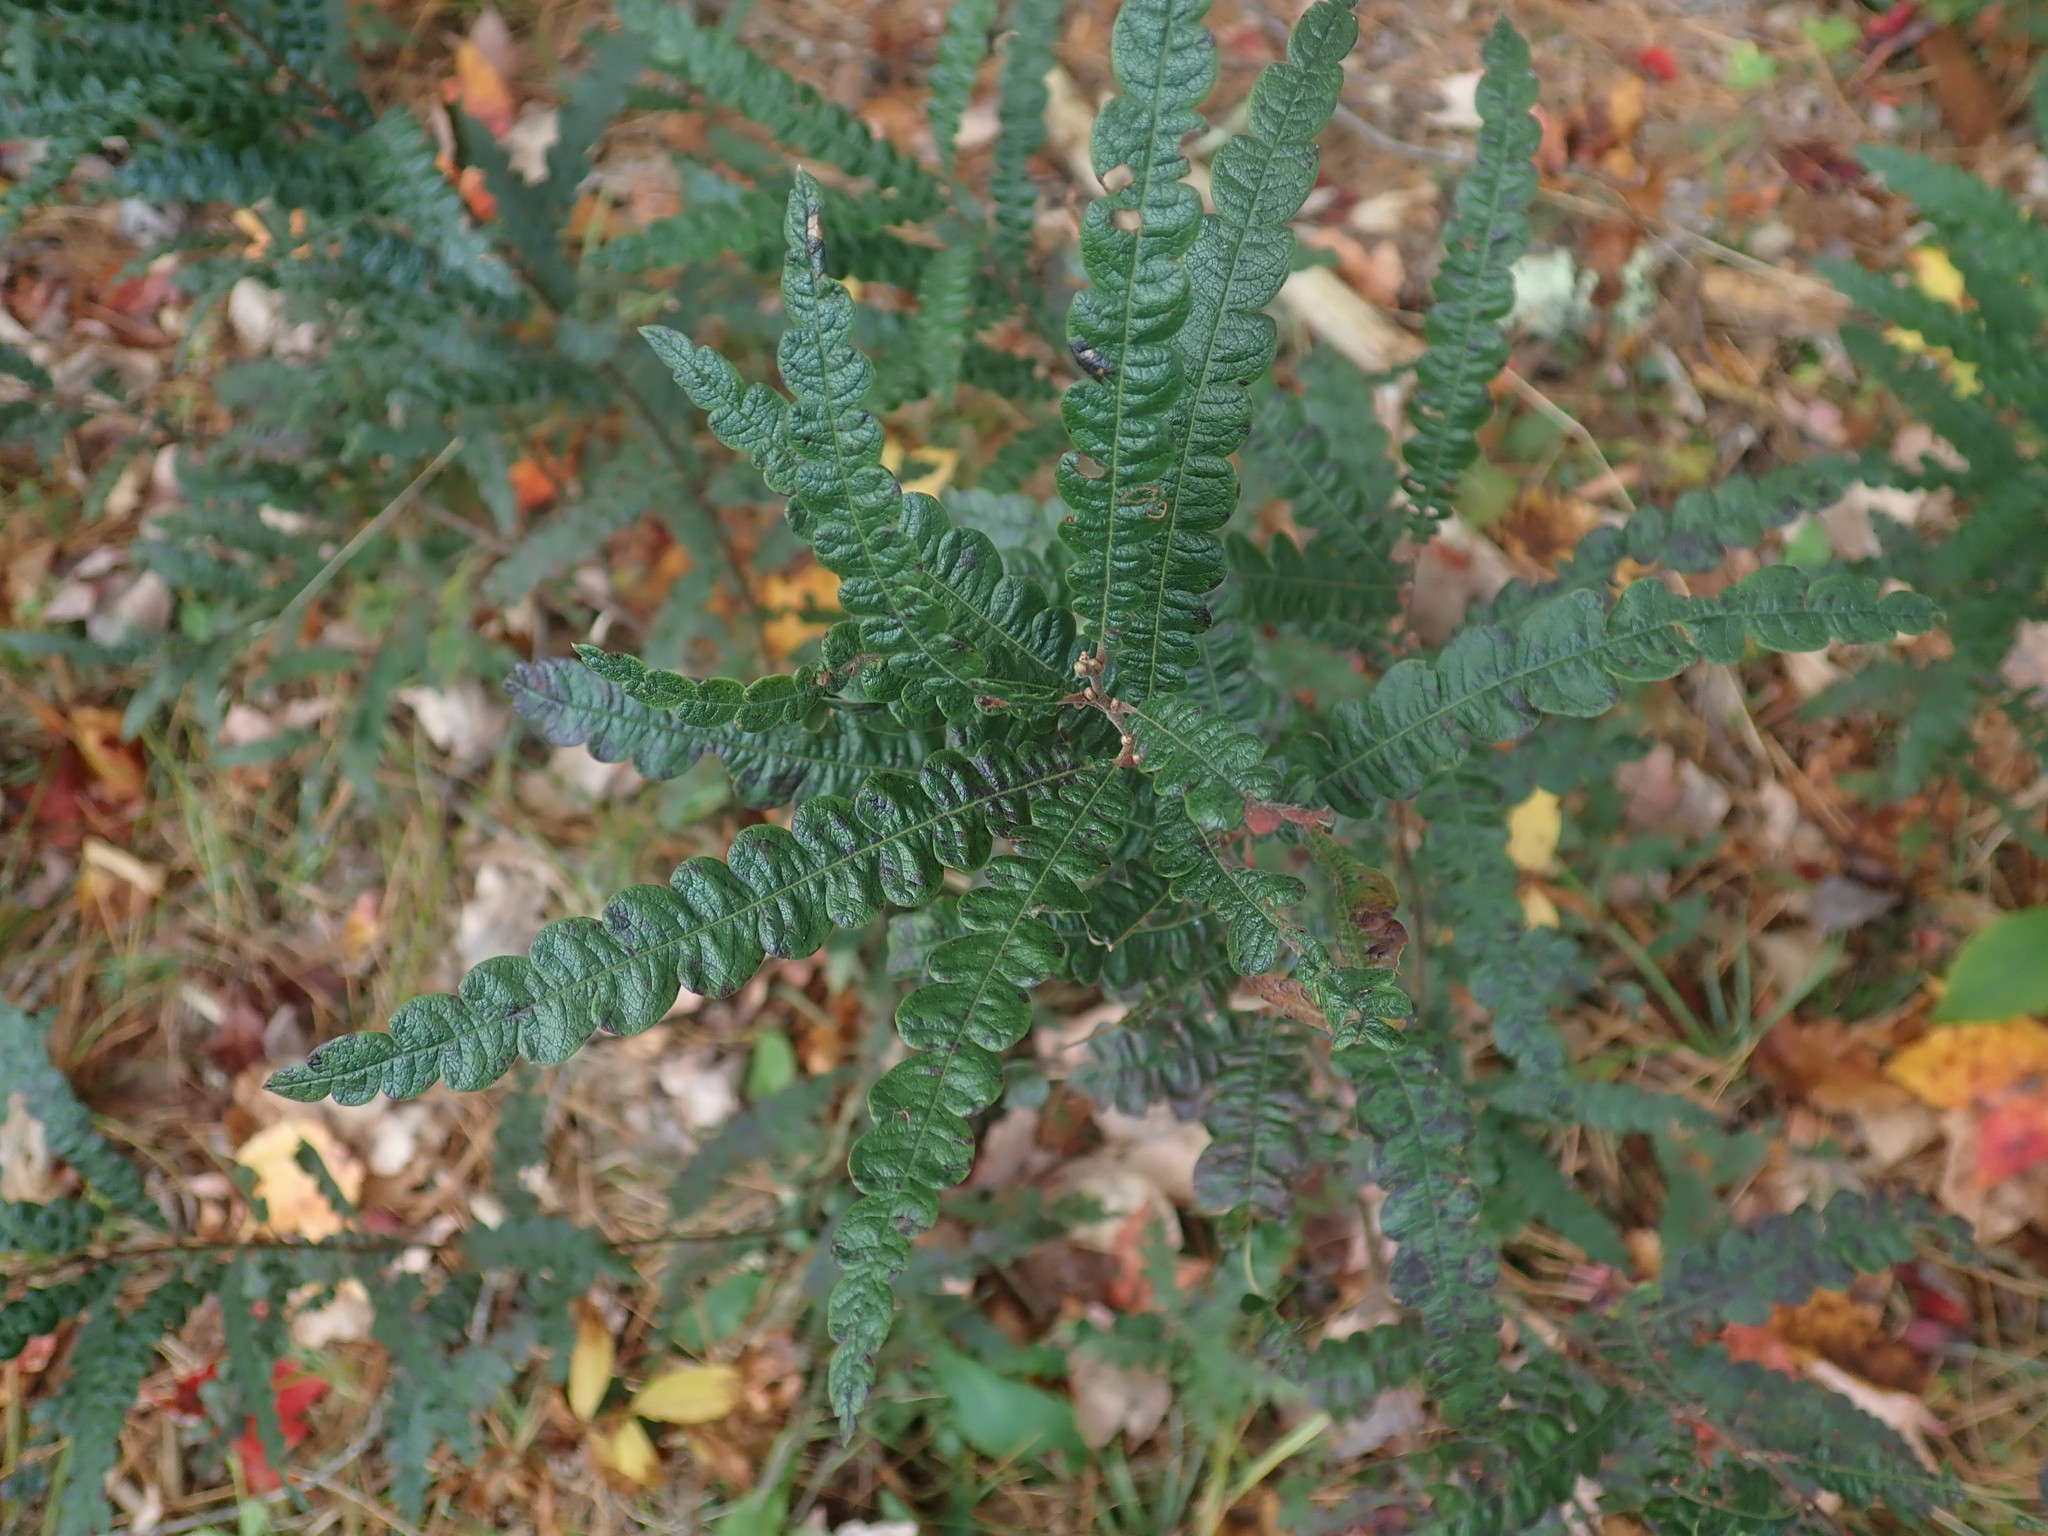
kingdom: Plantae
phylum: Tracheophyta
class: Magnoliopsida
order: Fagales
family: Myricaceae
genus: Comptonia
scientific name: Comptonia peregrina
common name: Sweet-fern
